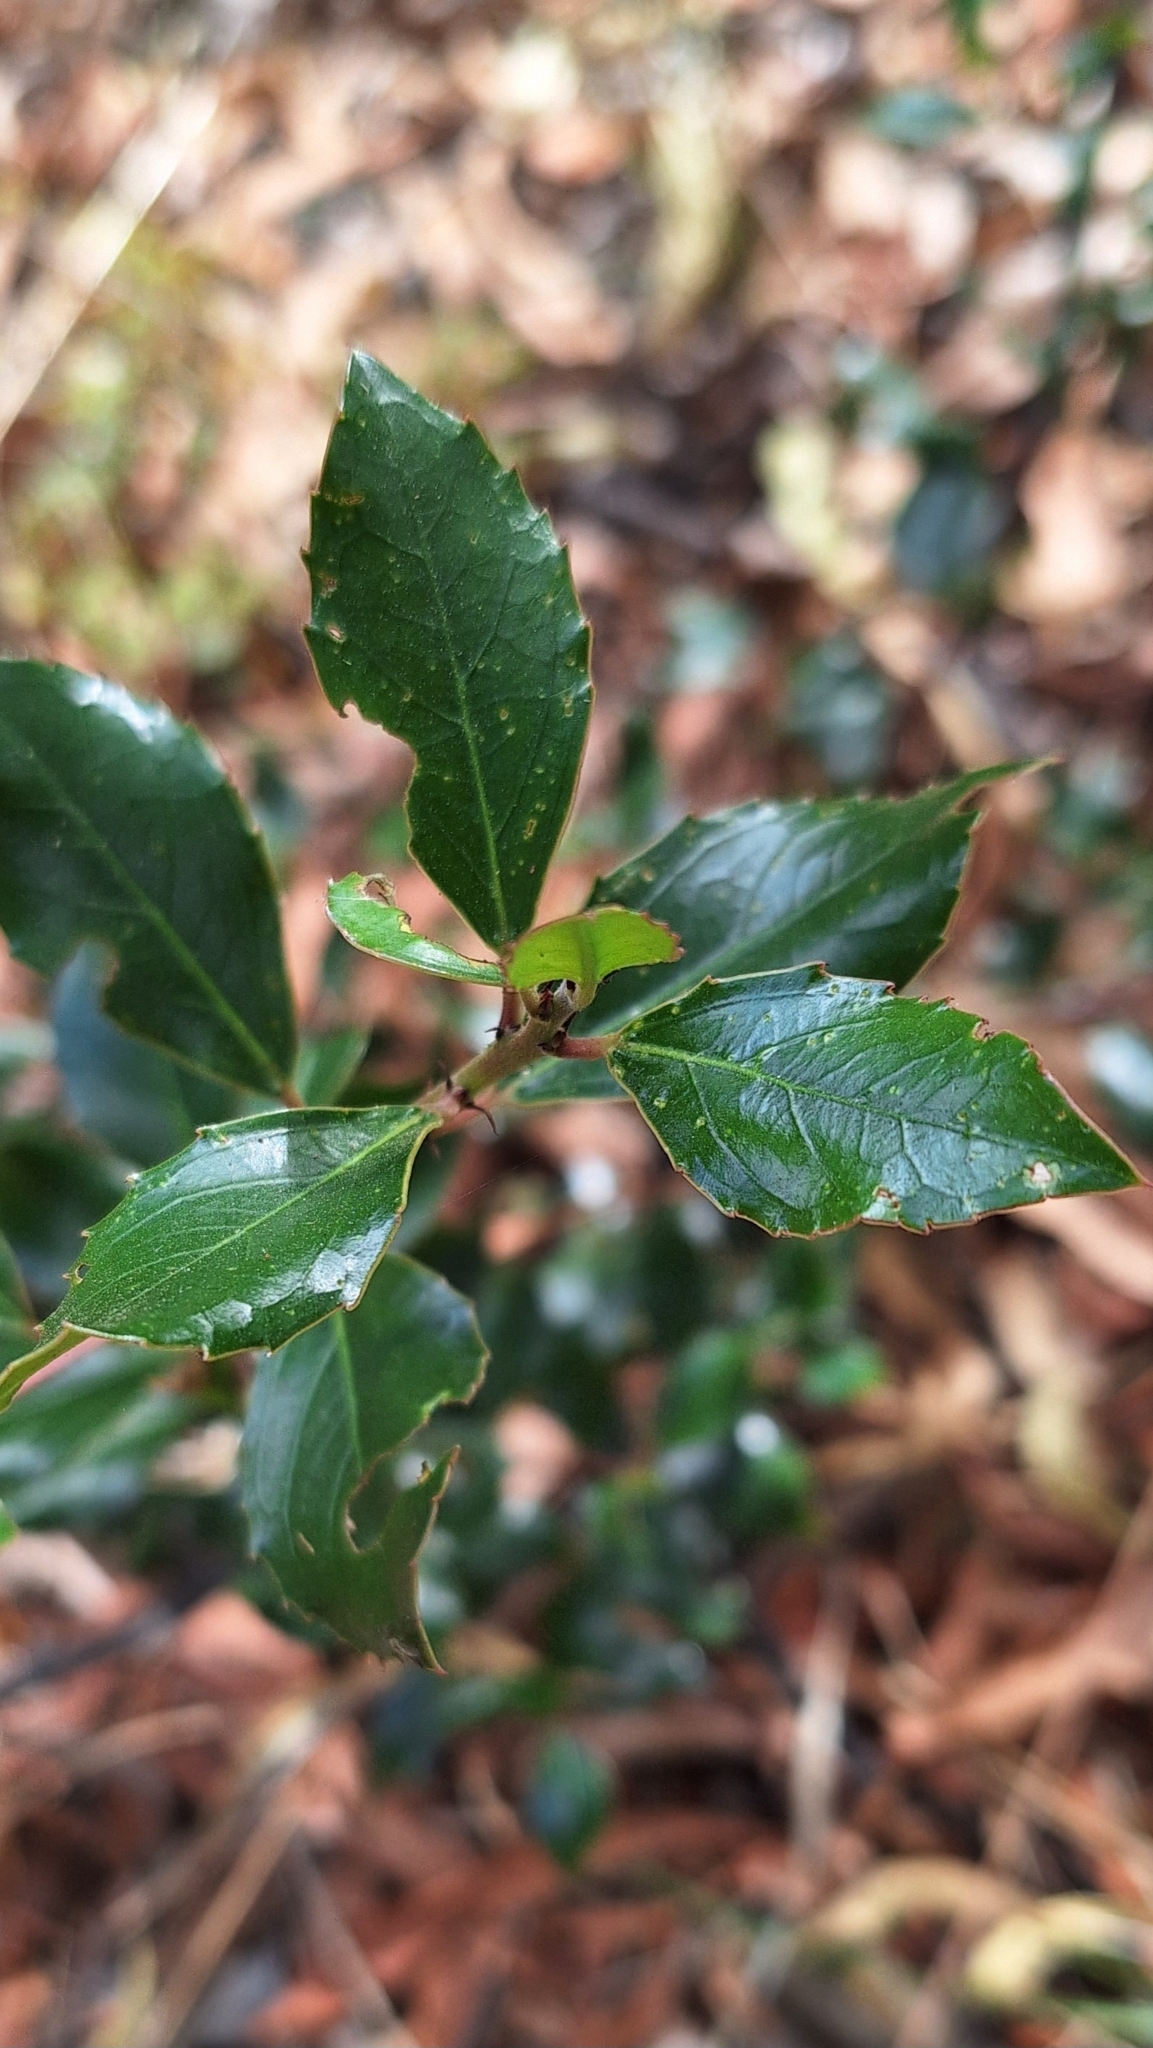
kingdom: Plantae
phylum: Tracheophyta
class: Magnoliopsida
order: Rosales
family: Rhamnaceae
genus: Rhamnus
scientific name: Rhamnus alaternus
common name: Mediterranean buckthorn
